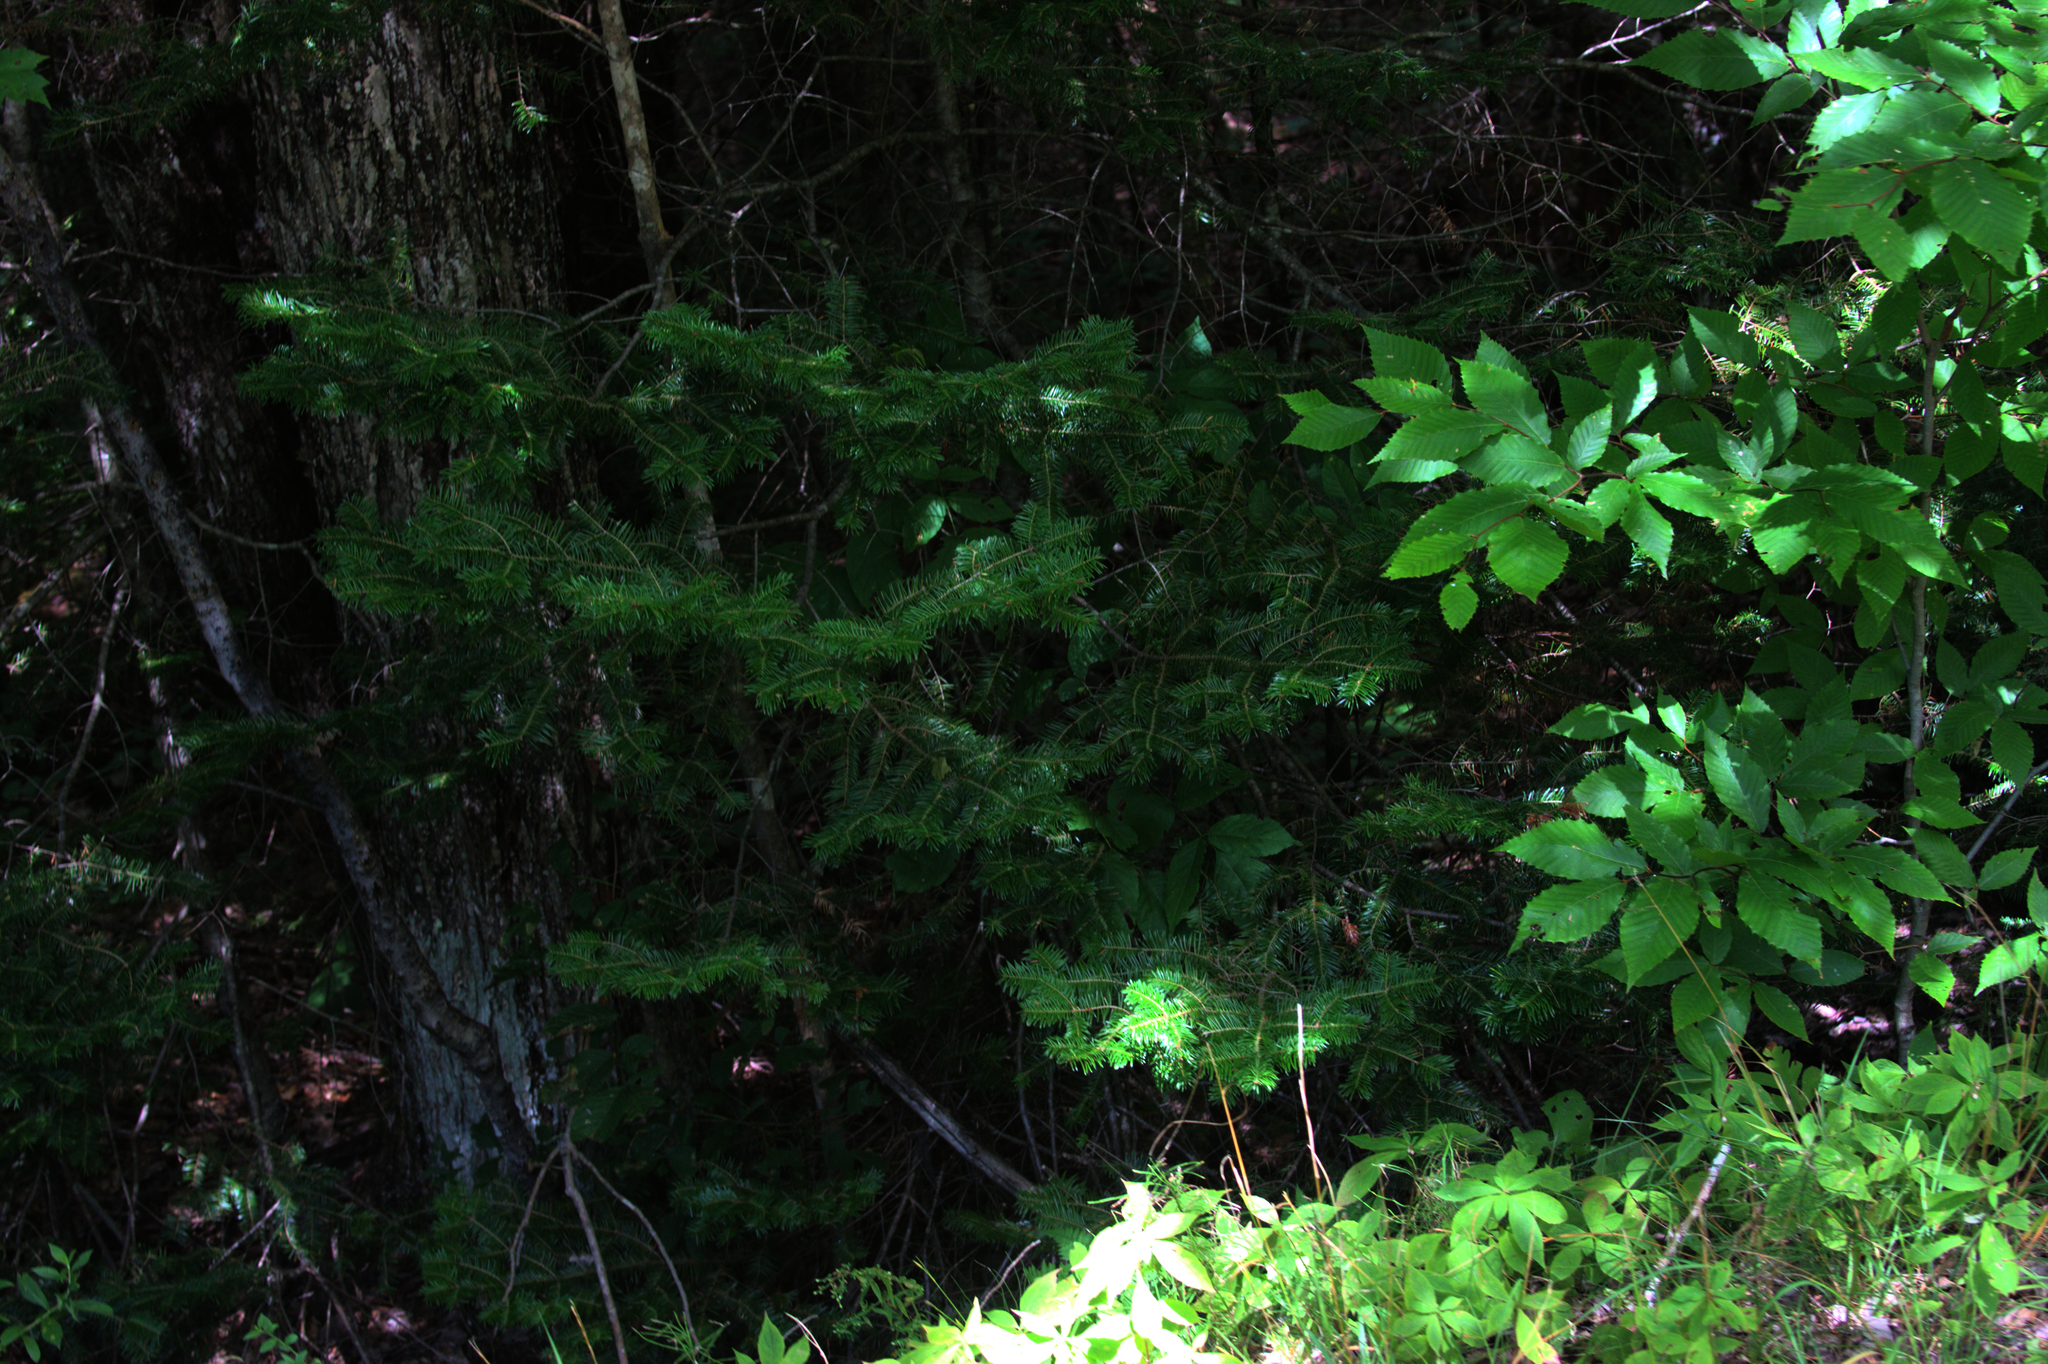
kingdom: Plantae
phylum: Tracheophyta
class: Magnoliopsida
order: Fagales
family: Fagaceae
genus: Fagus
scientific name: Fagus grandifolia
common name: American beech
